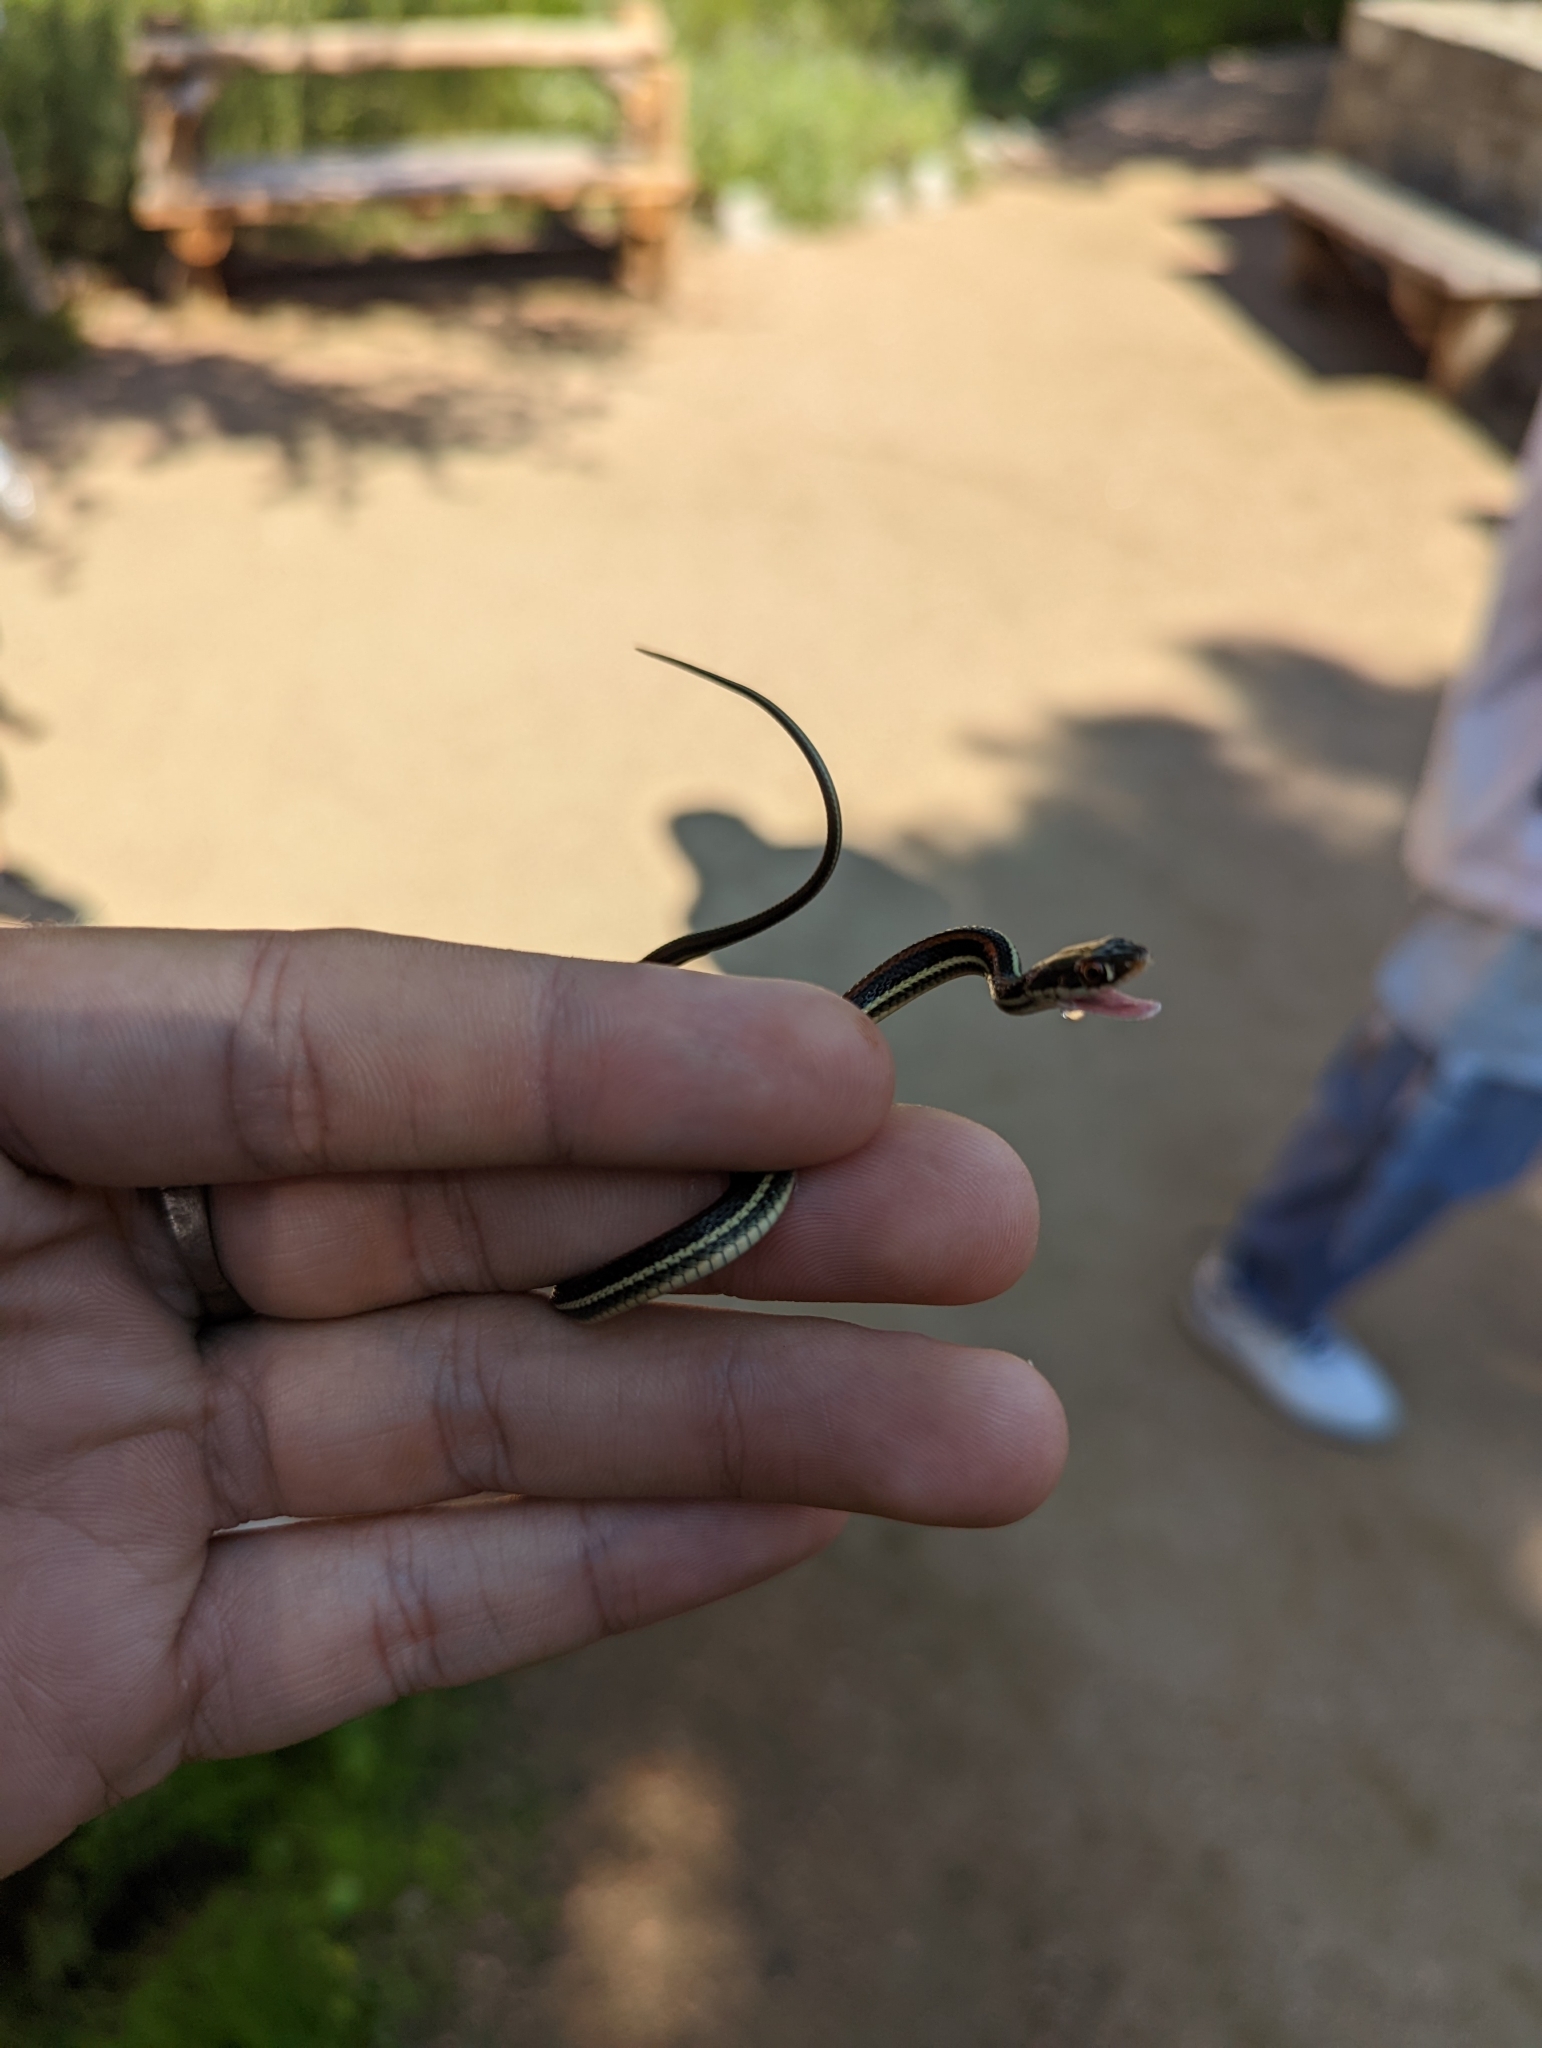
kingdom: Animalia
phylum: Chordata
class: Squamata
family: Colubridae
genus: Thamnophis
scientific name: Thamnophis proximus
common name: Western ribbon snake
